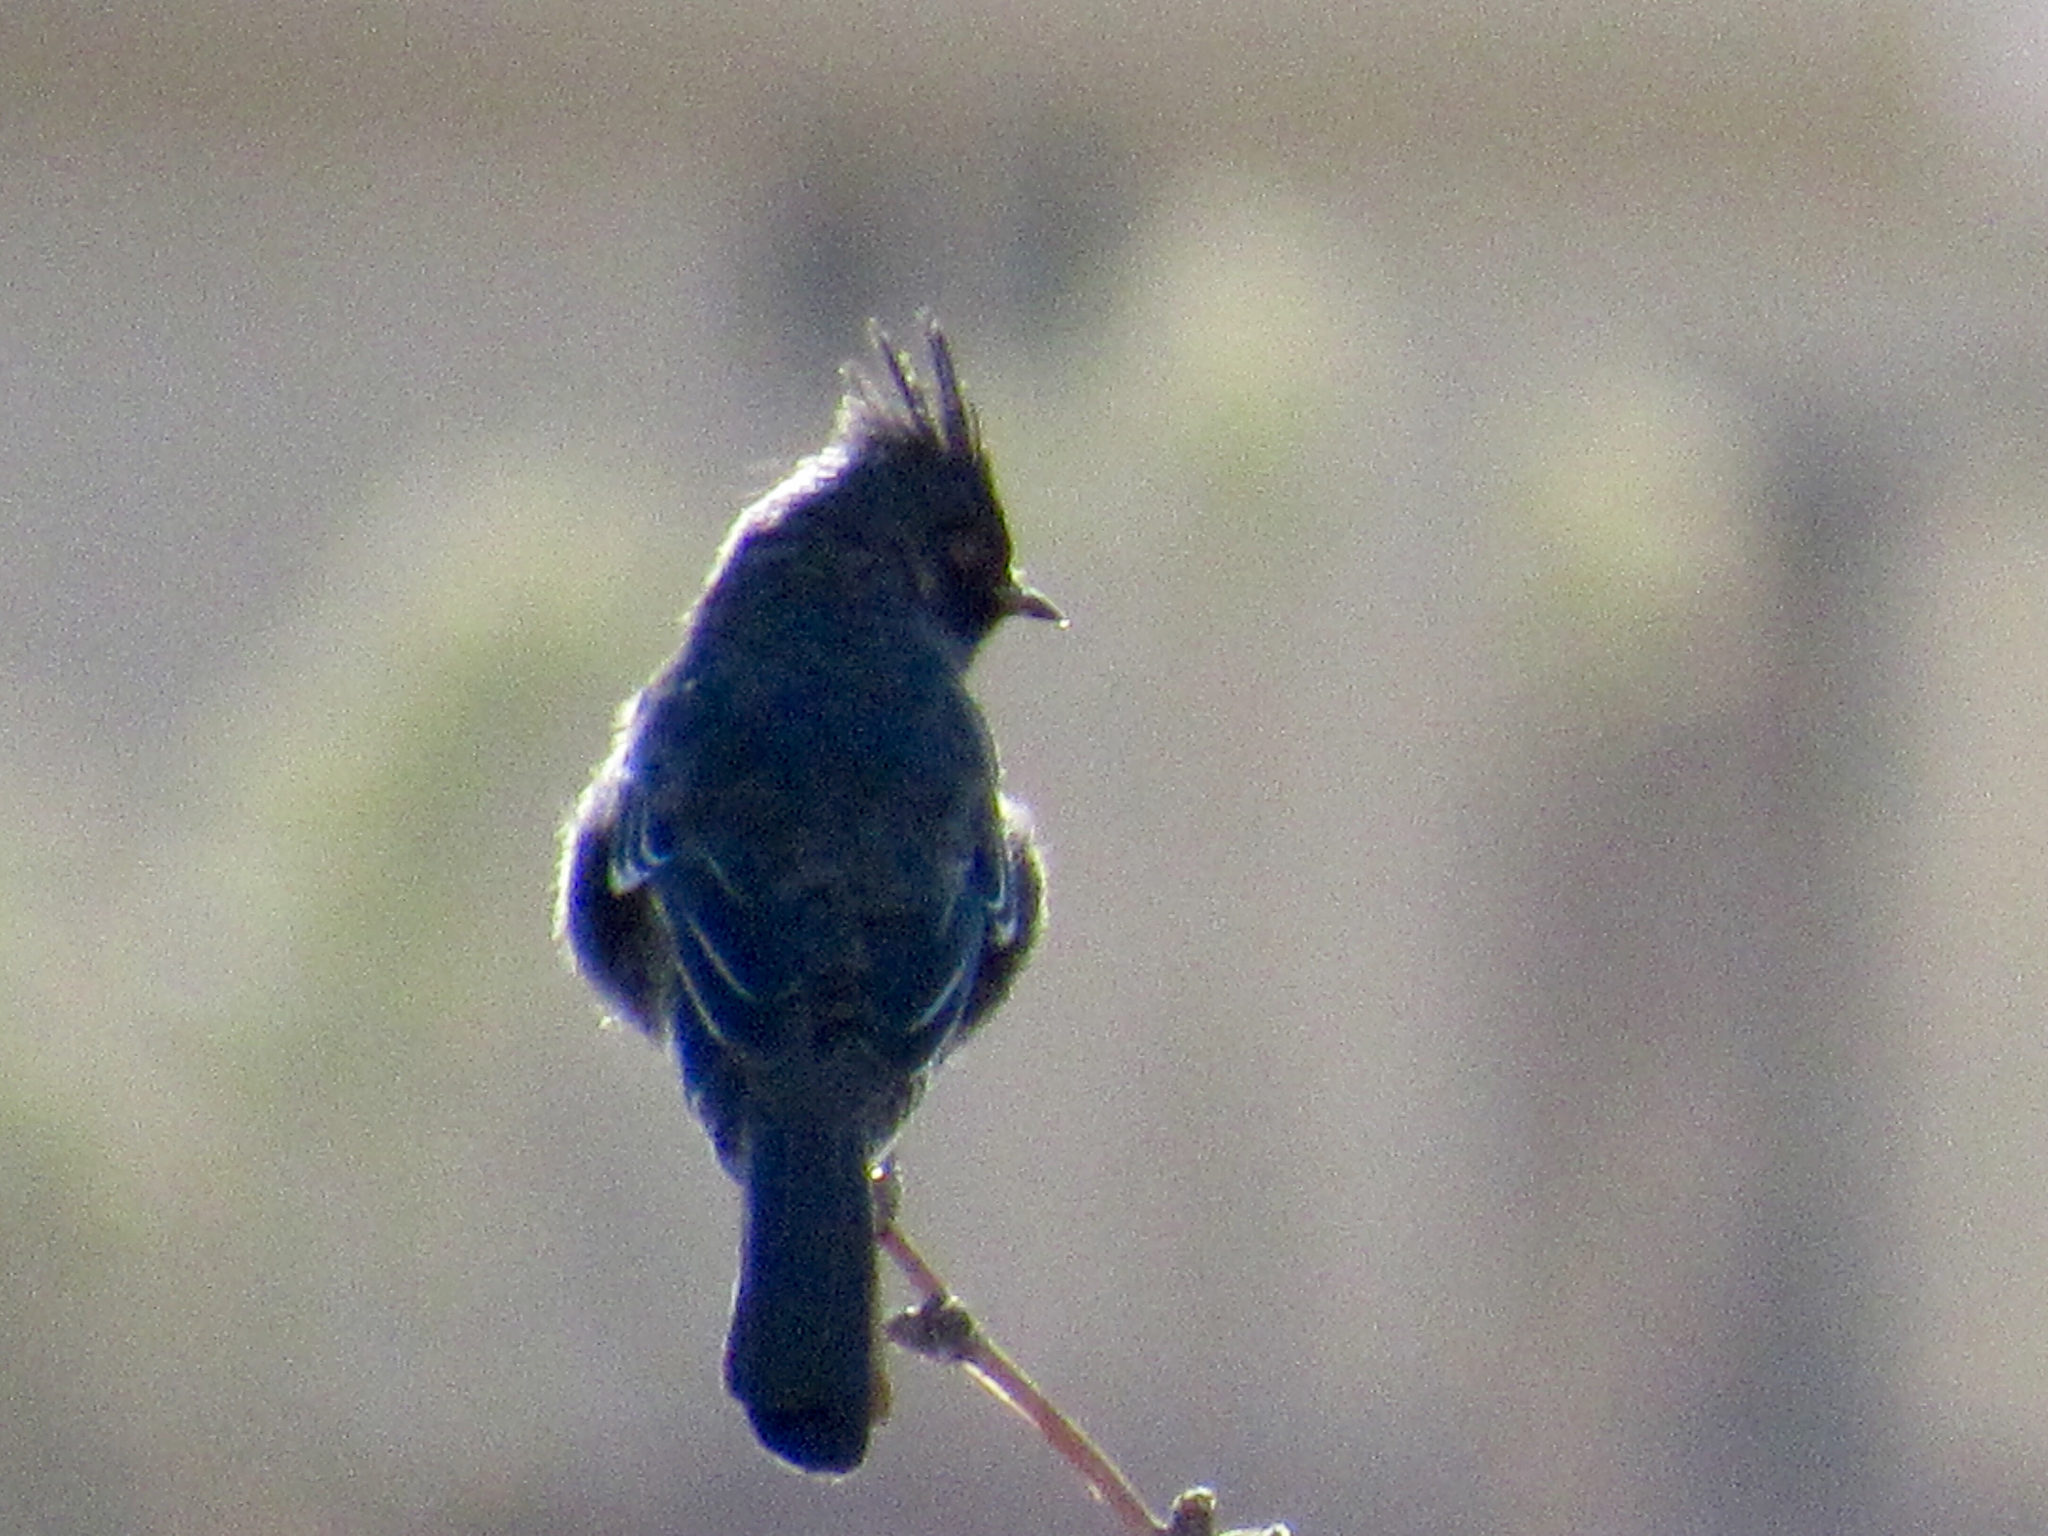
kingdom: Animalia
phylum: Chordata
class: Aves
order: Passeriformes
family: Ptilogonatidae
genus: Phainopepla
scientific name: Phainopepla nitens
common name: Phainopepla
